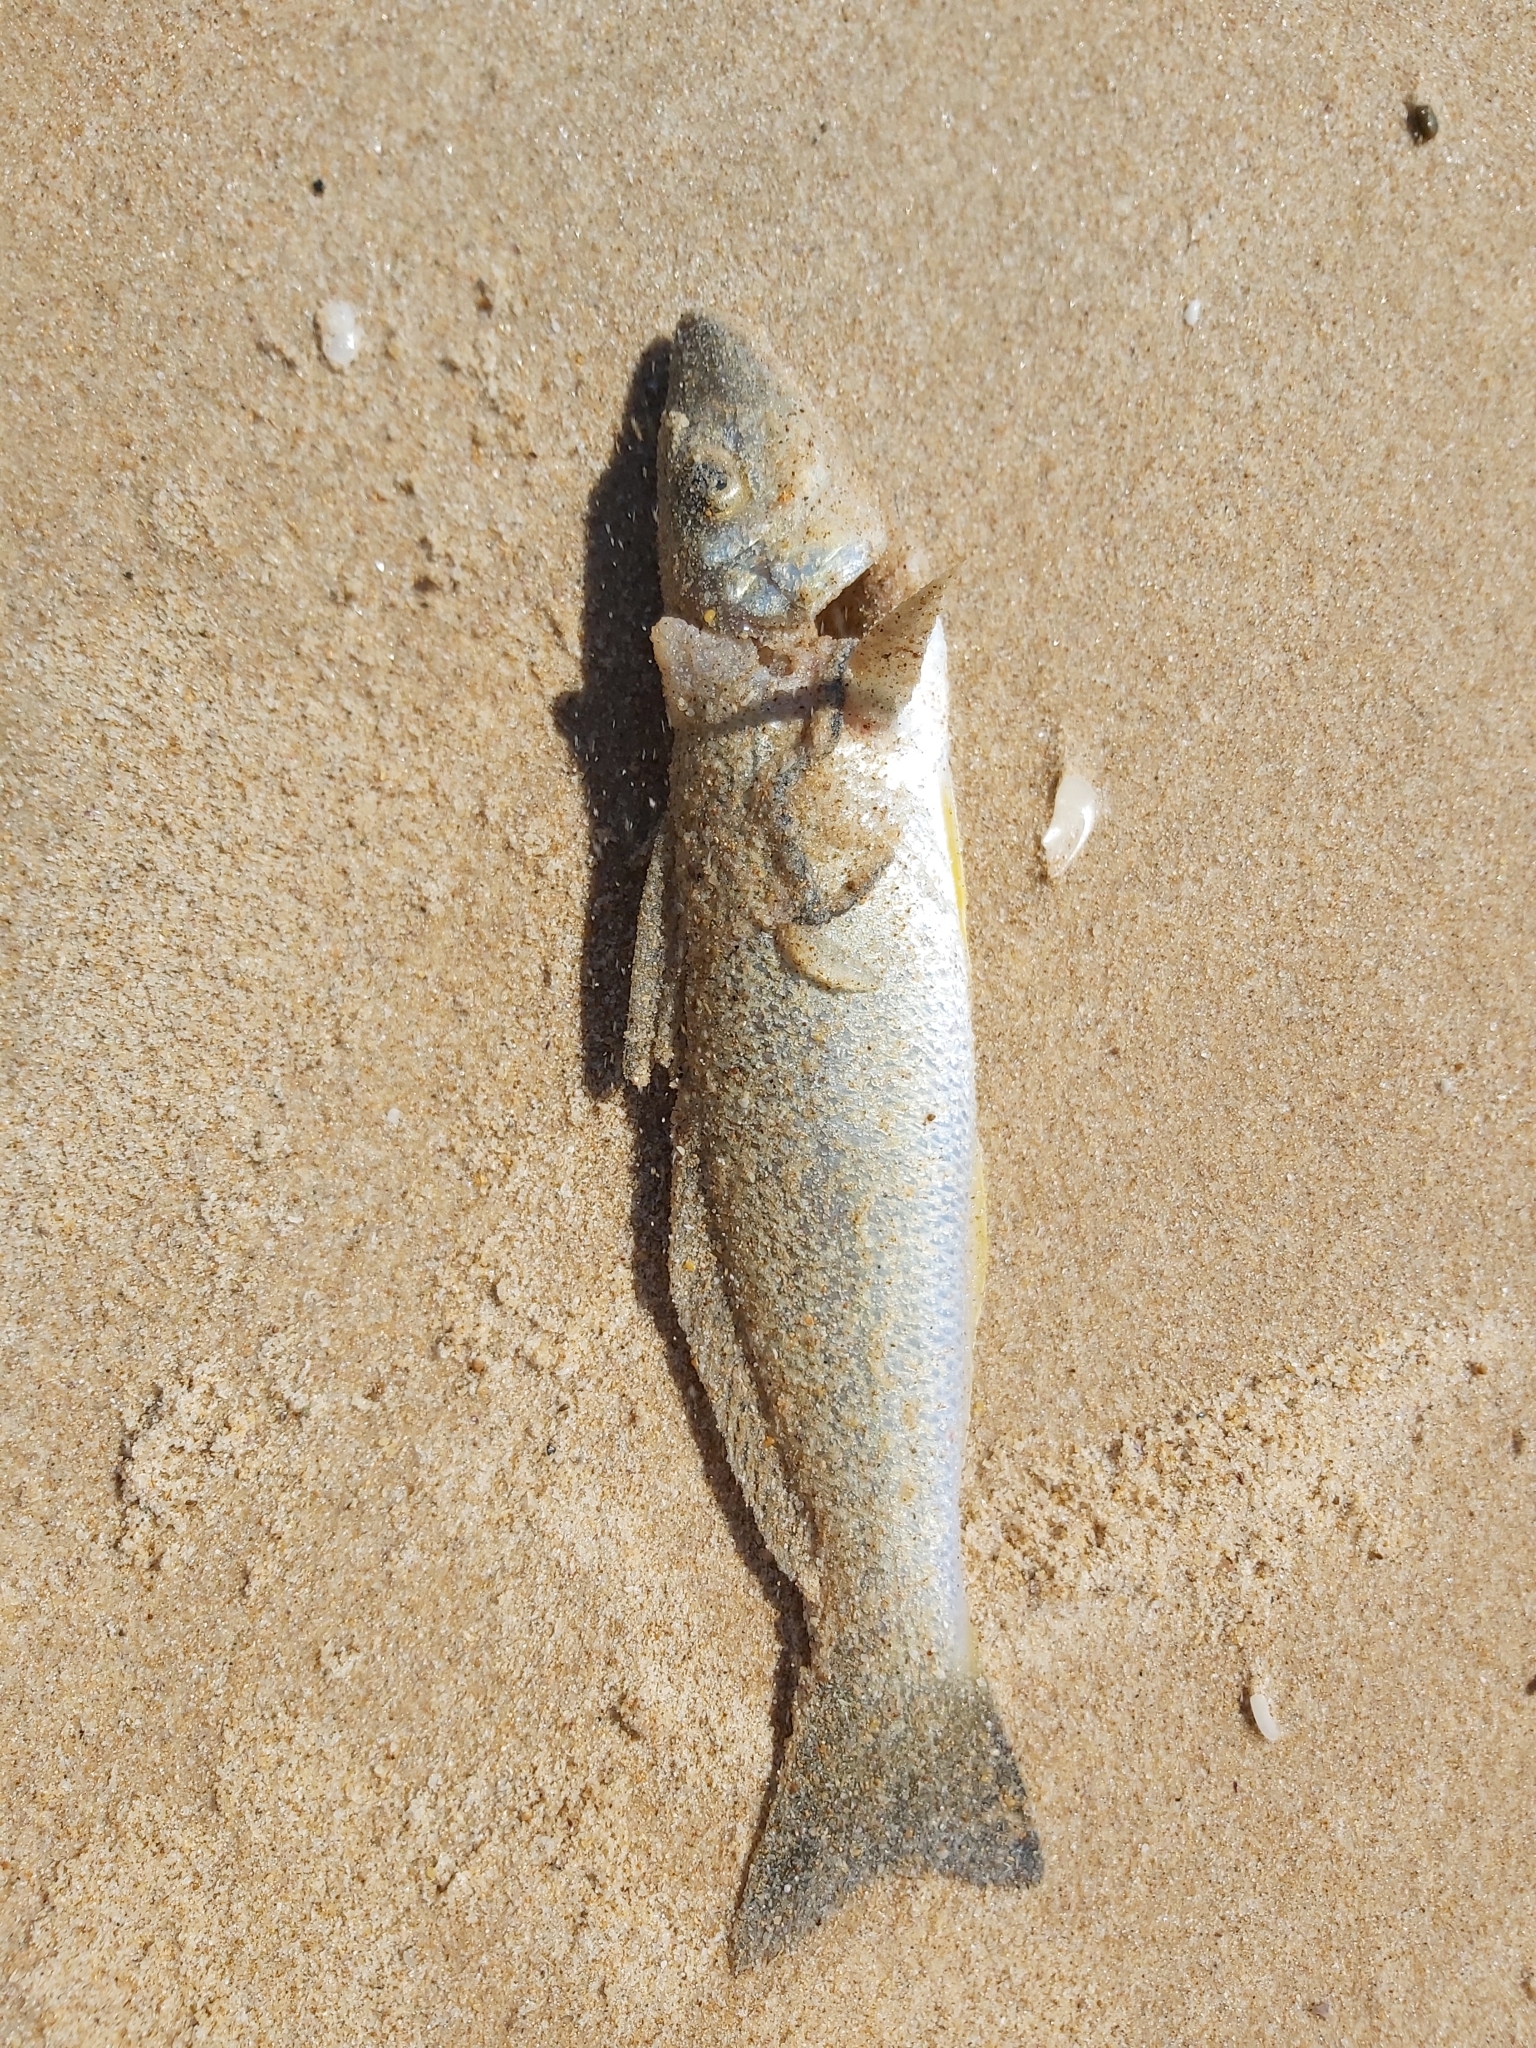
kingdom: Animalia
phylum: Chordata
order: Perciformes
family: Sillaginidae
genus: Sillago
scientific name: Sillago ciliata
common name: Sand sillago
